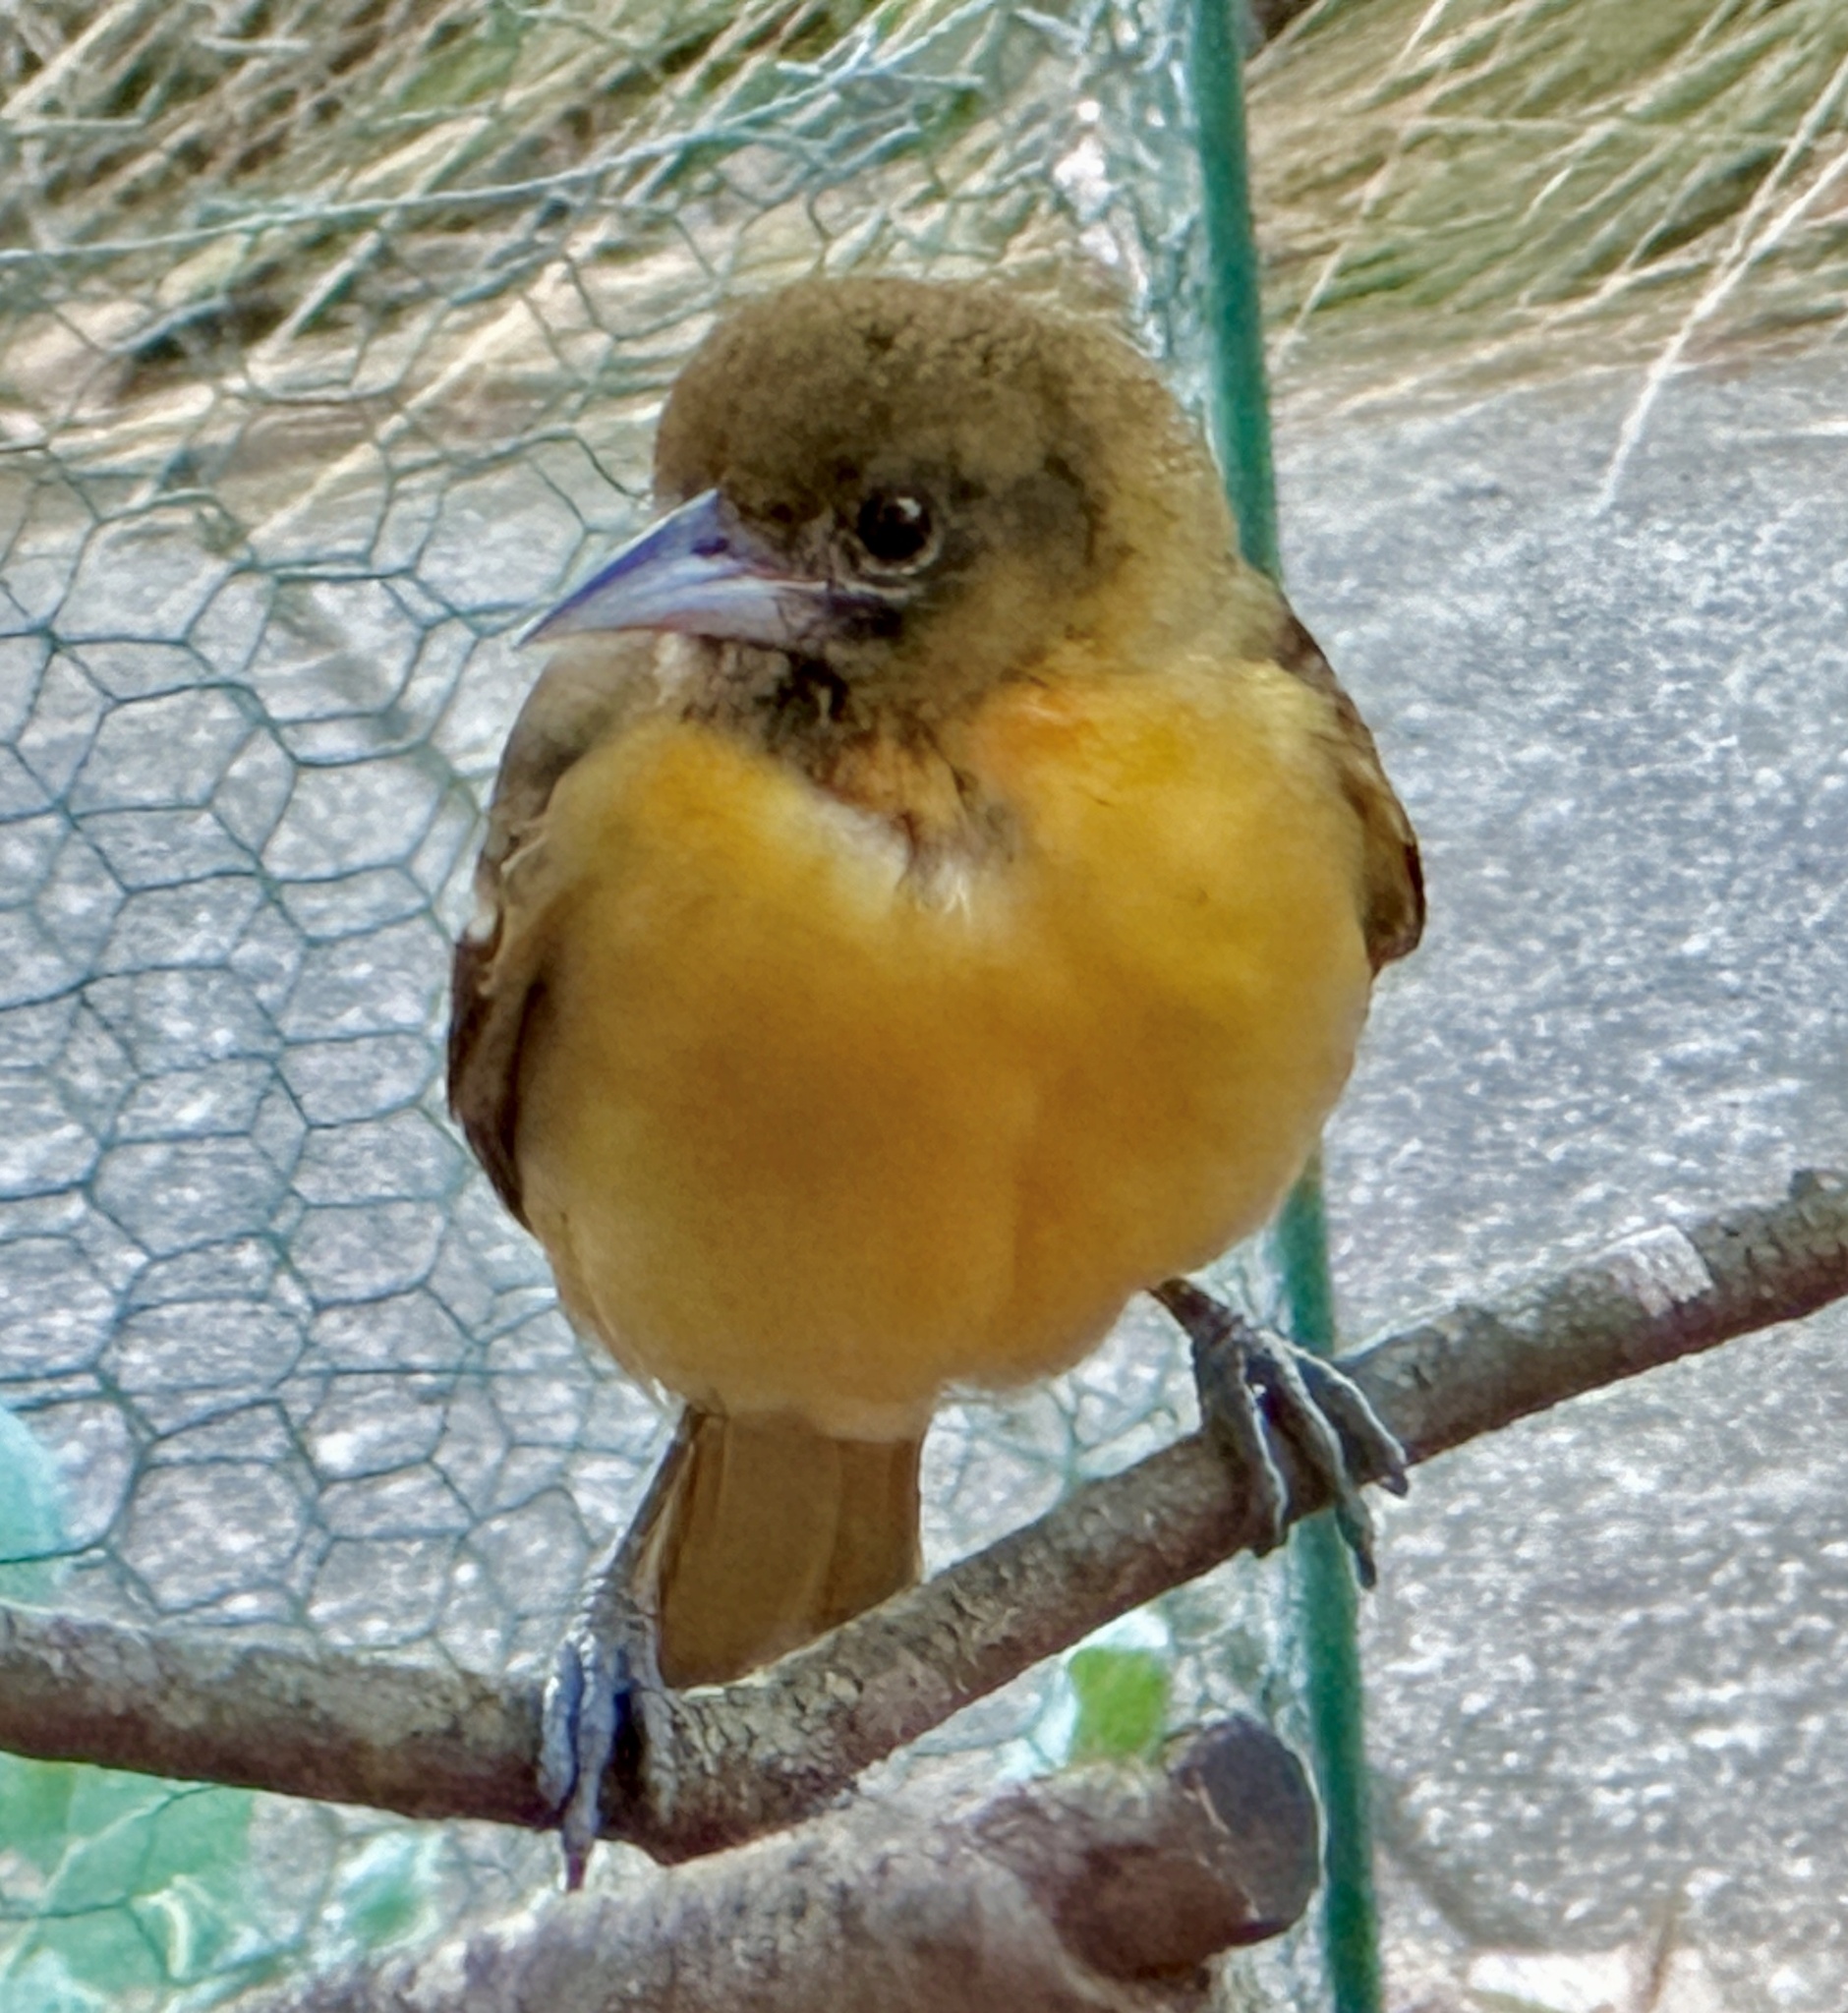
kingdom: Animalia
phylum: Chordata
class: Aves
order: Passeriformes
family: Icteridae
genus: Icterus
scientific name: Icterus galbula
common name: Baltimore oriole
